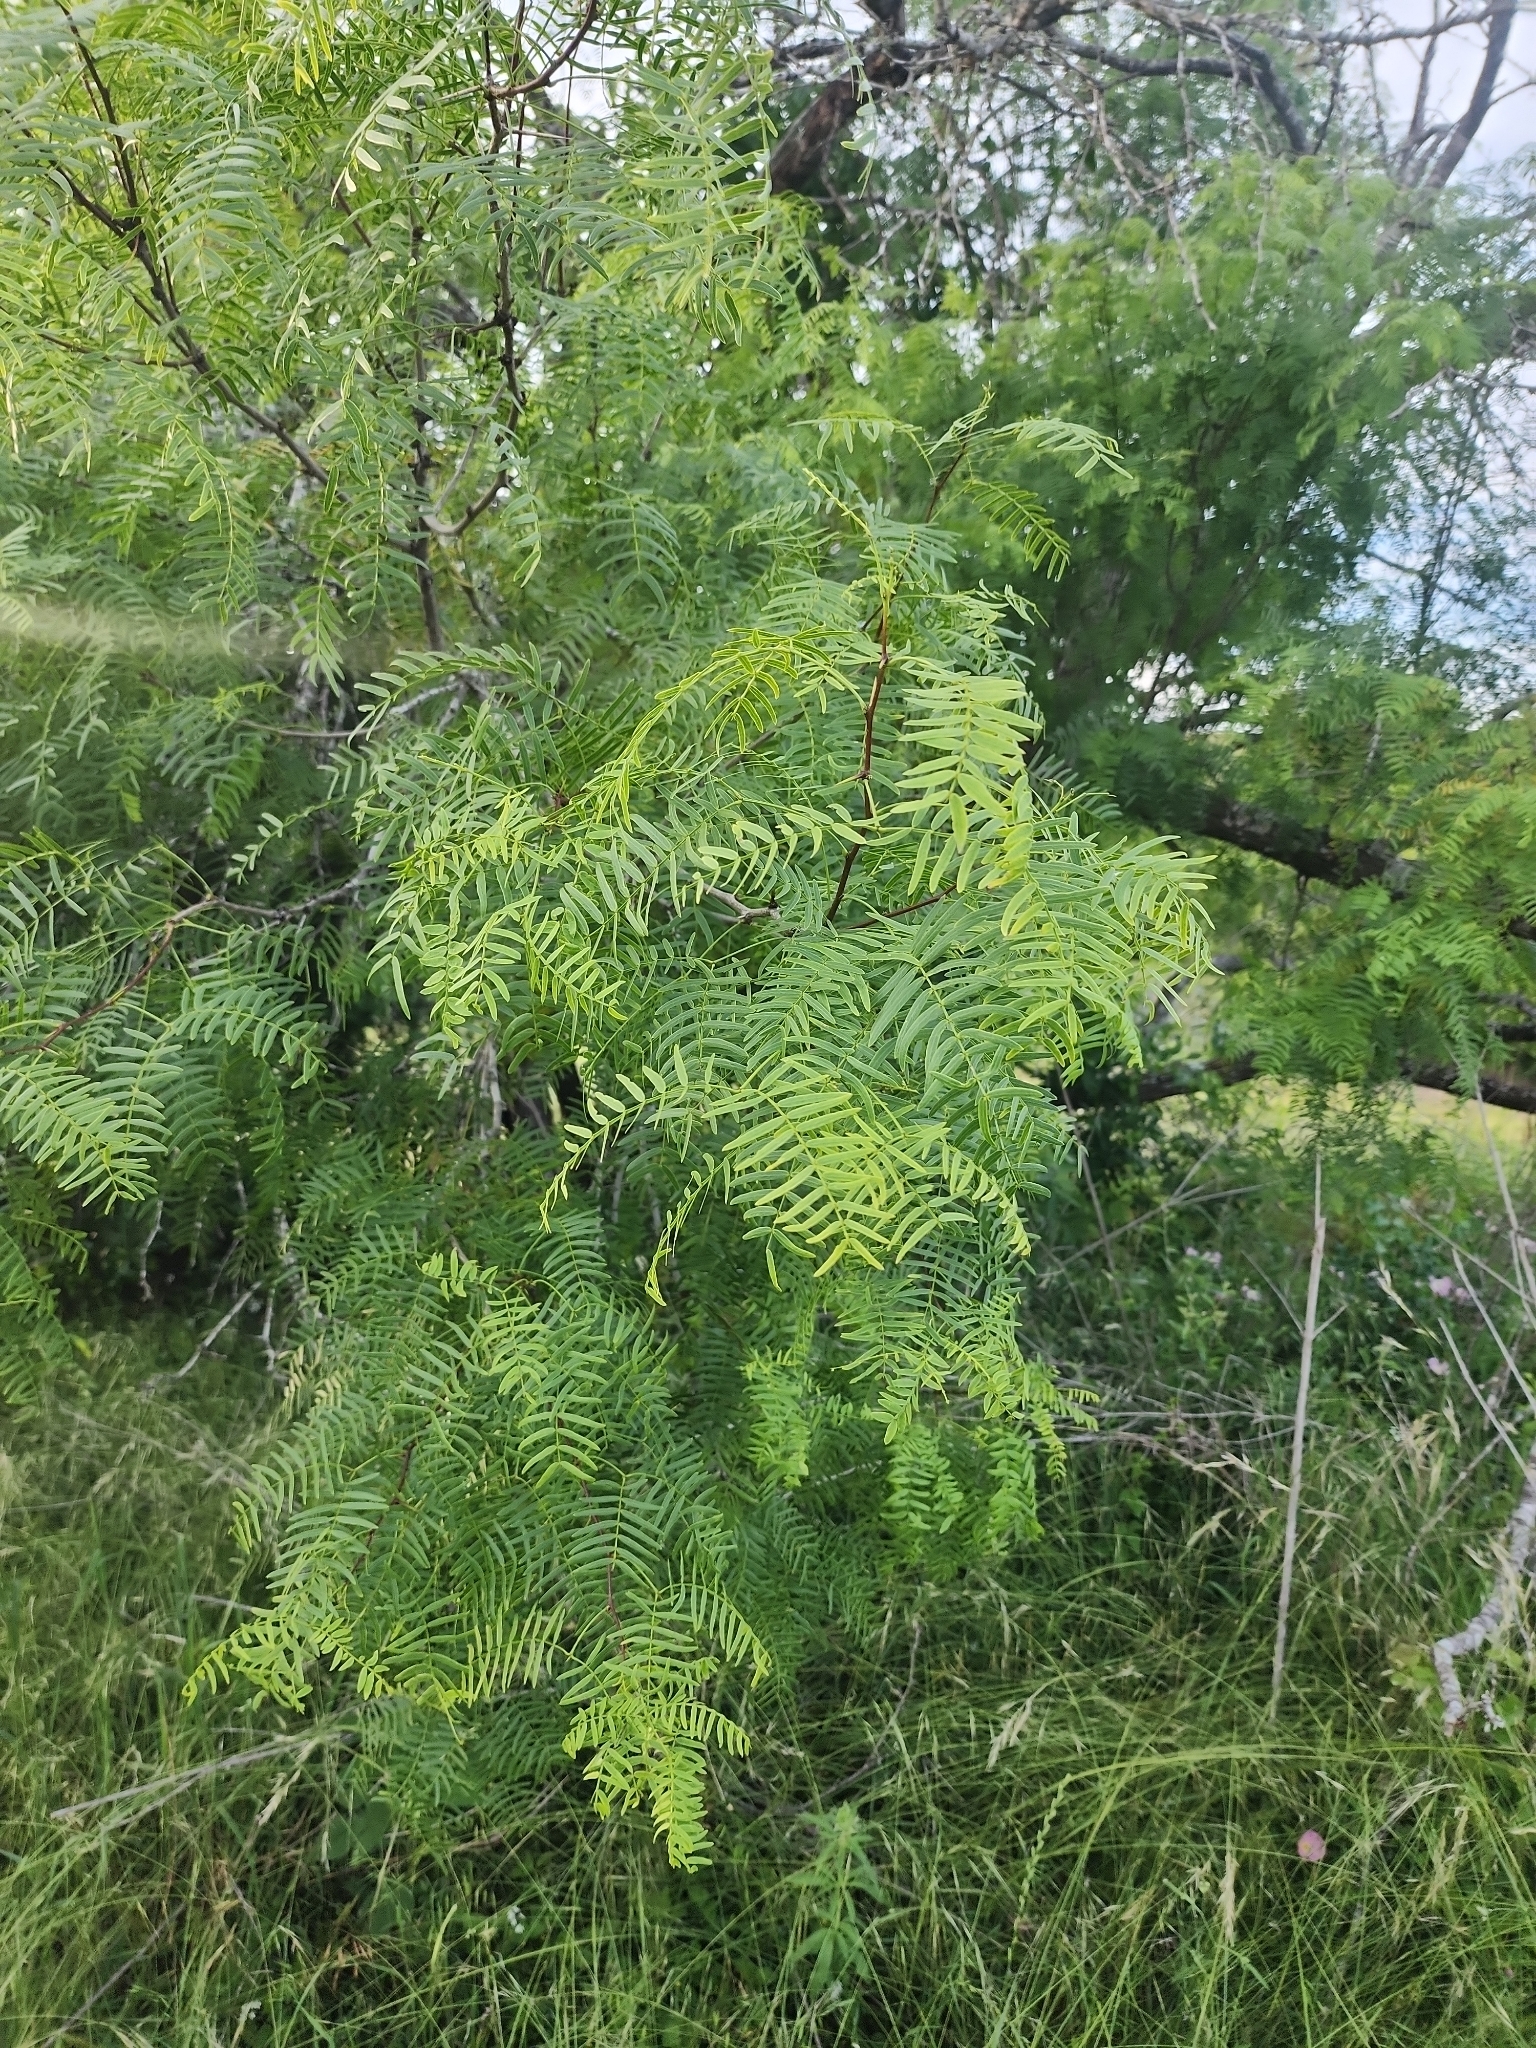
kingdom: Plantae
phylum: Tracheophyta
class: Magnoliopsida
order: Fabales
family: Fabaceae
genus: Prosopis
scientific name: Prosopis glandulosa
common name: Honey mesquite
